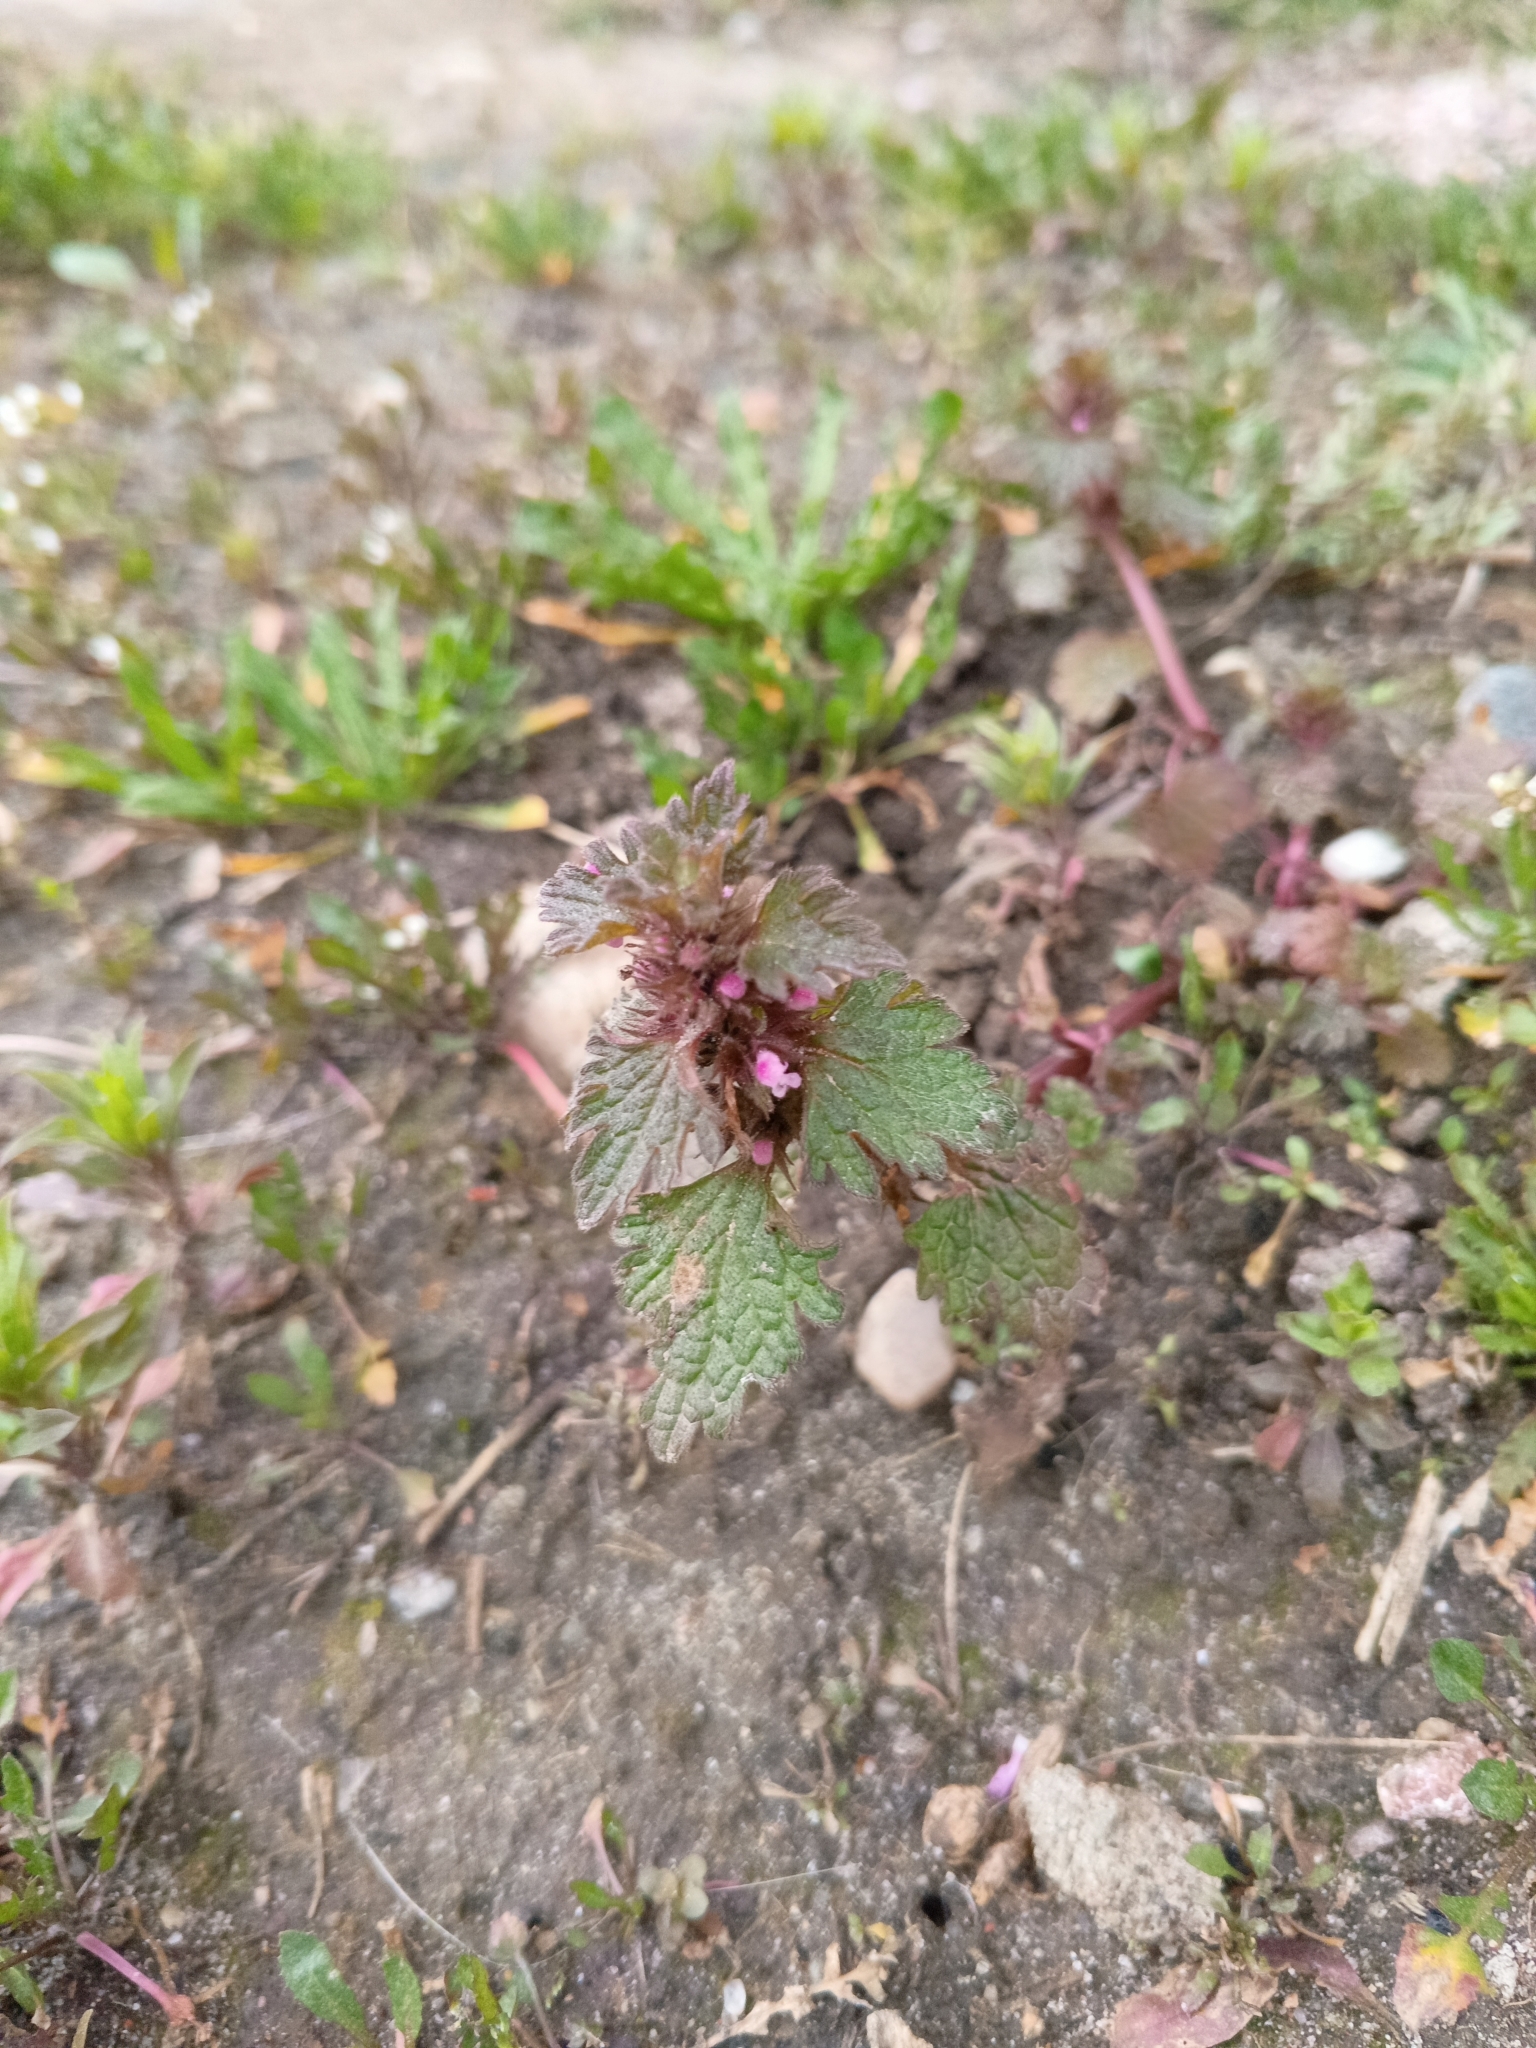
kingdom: Plantae
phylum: Tracheophyta
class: Magnoliopsida
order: Lamiales
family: Lamiaceae
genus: Lamium
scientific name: Lamium hybridum
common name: Cut-leaved dead-nettle
